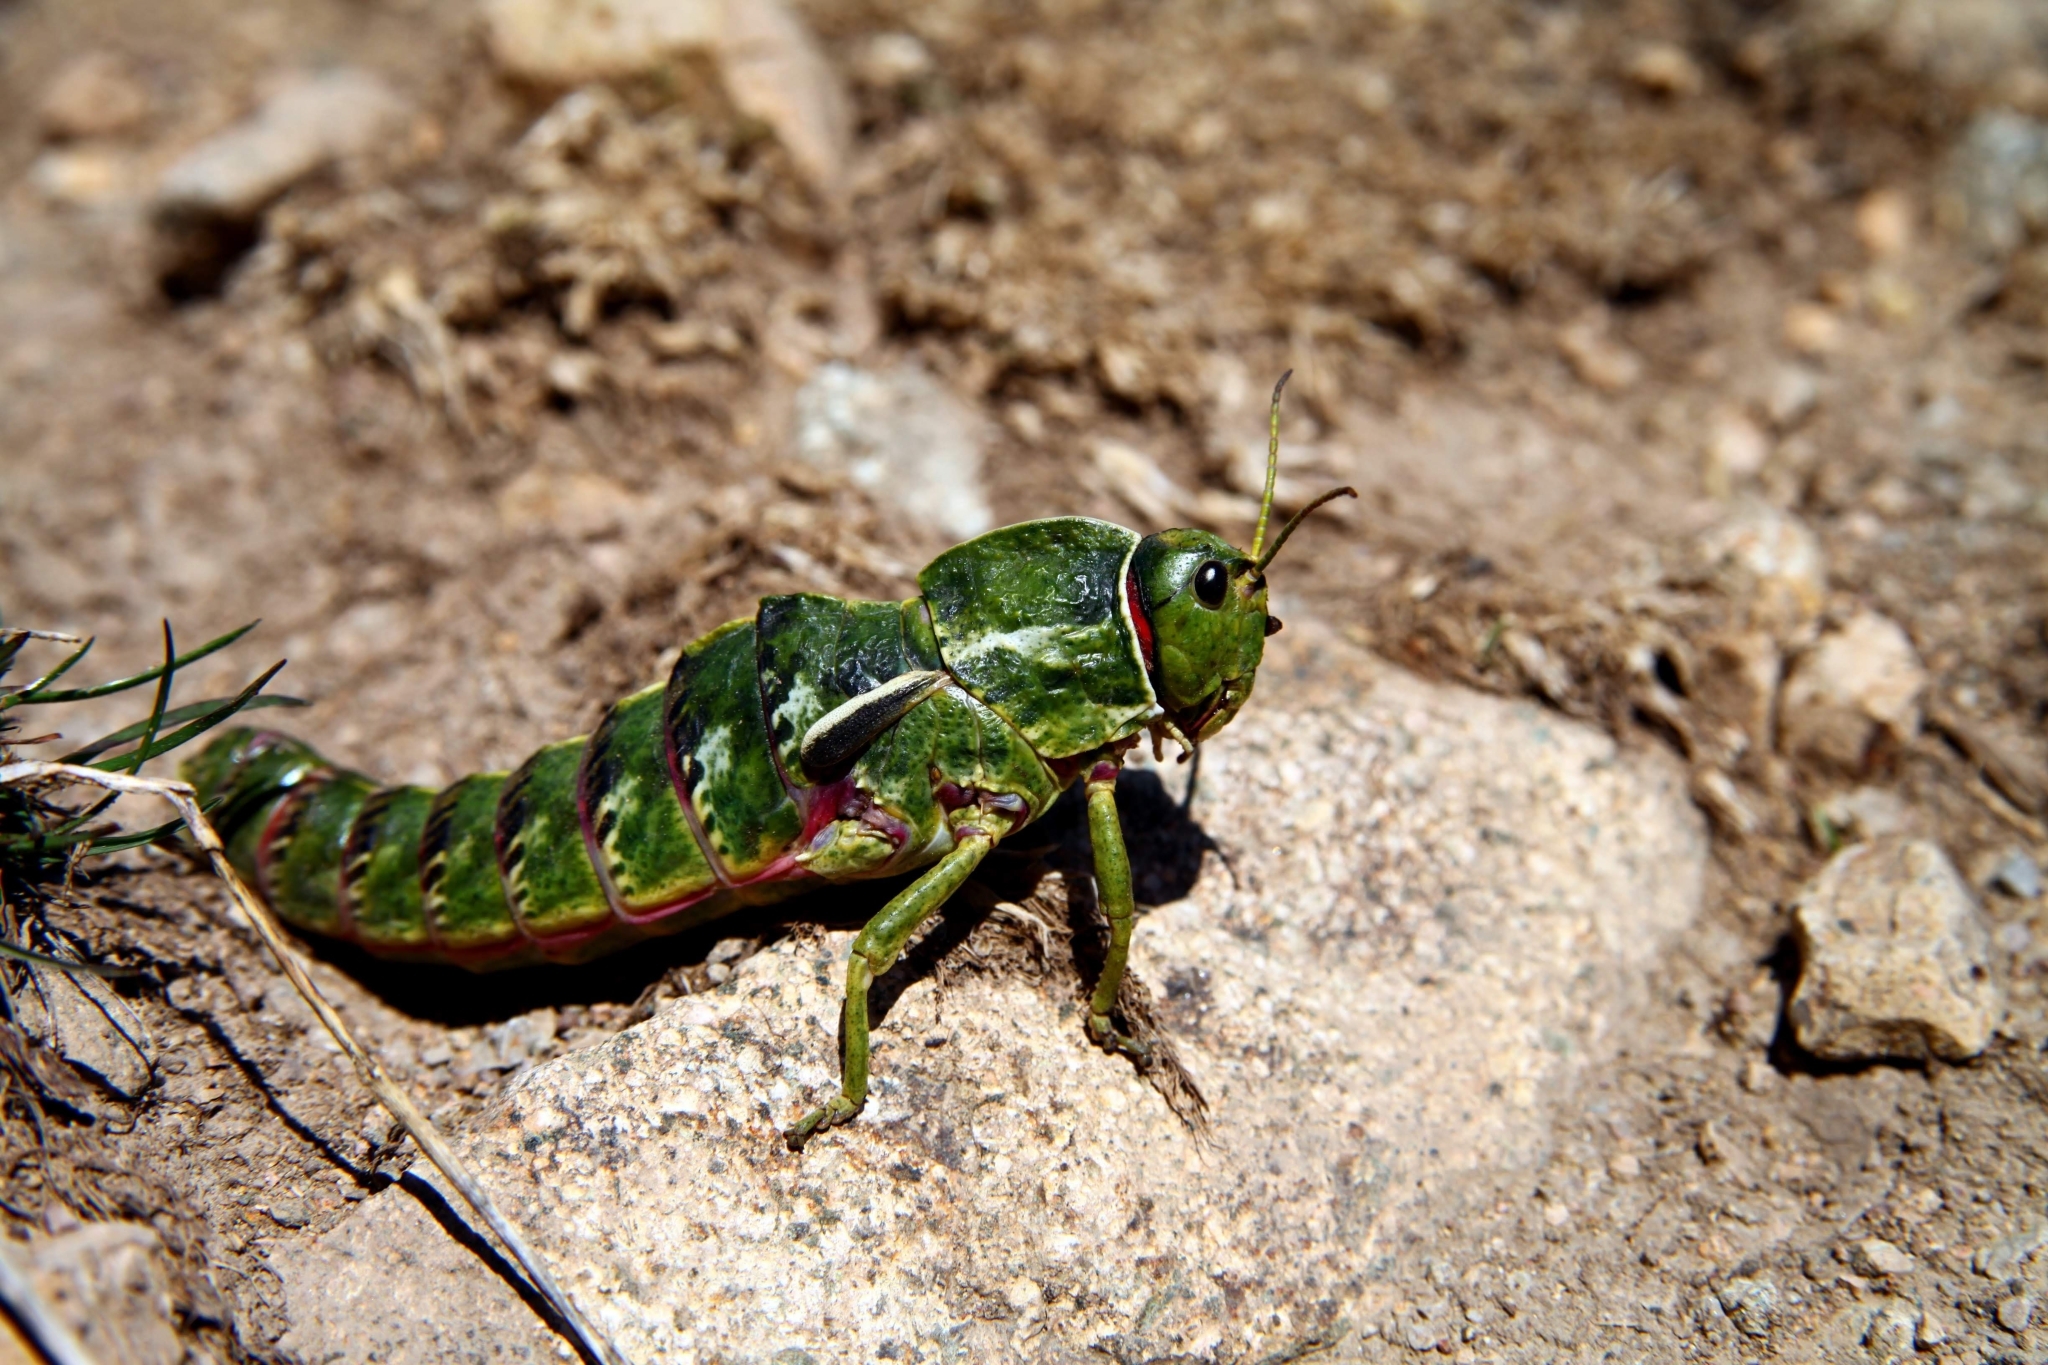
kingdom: Animalia
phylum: Arthropoda
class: Insecta
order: Orthoptera
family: Pamphagidae
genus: Pamphagus
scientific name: Pamphagus sardeus
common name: Sardinian stone grasshopper
